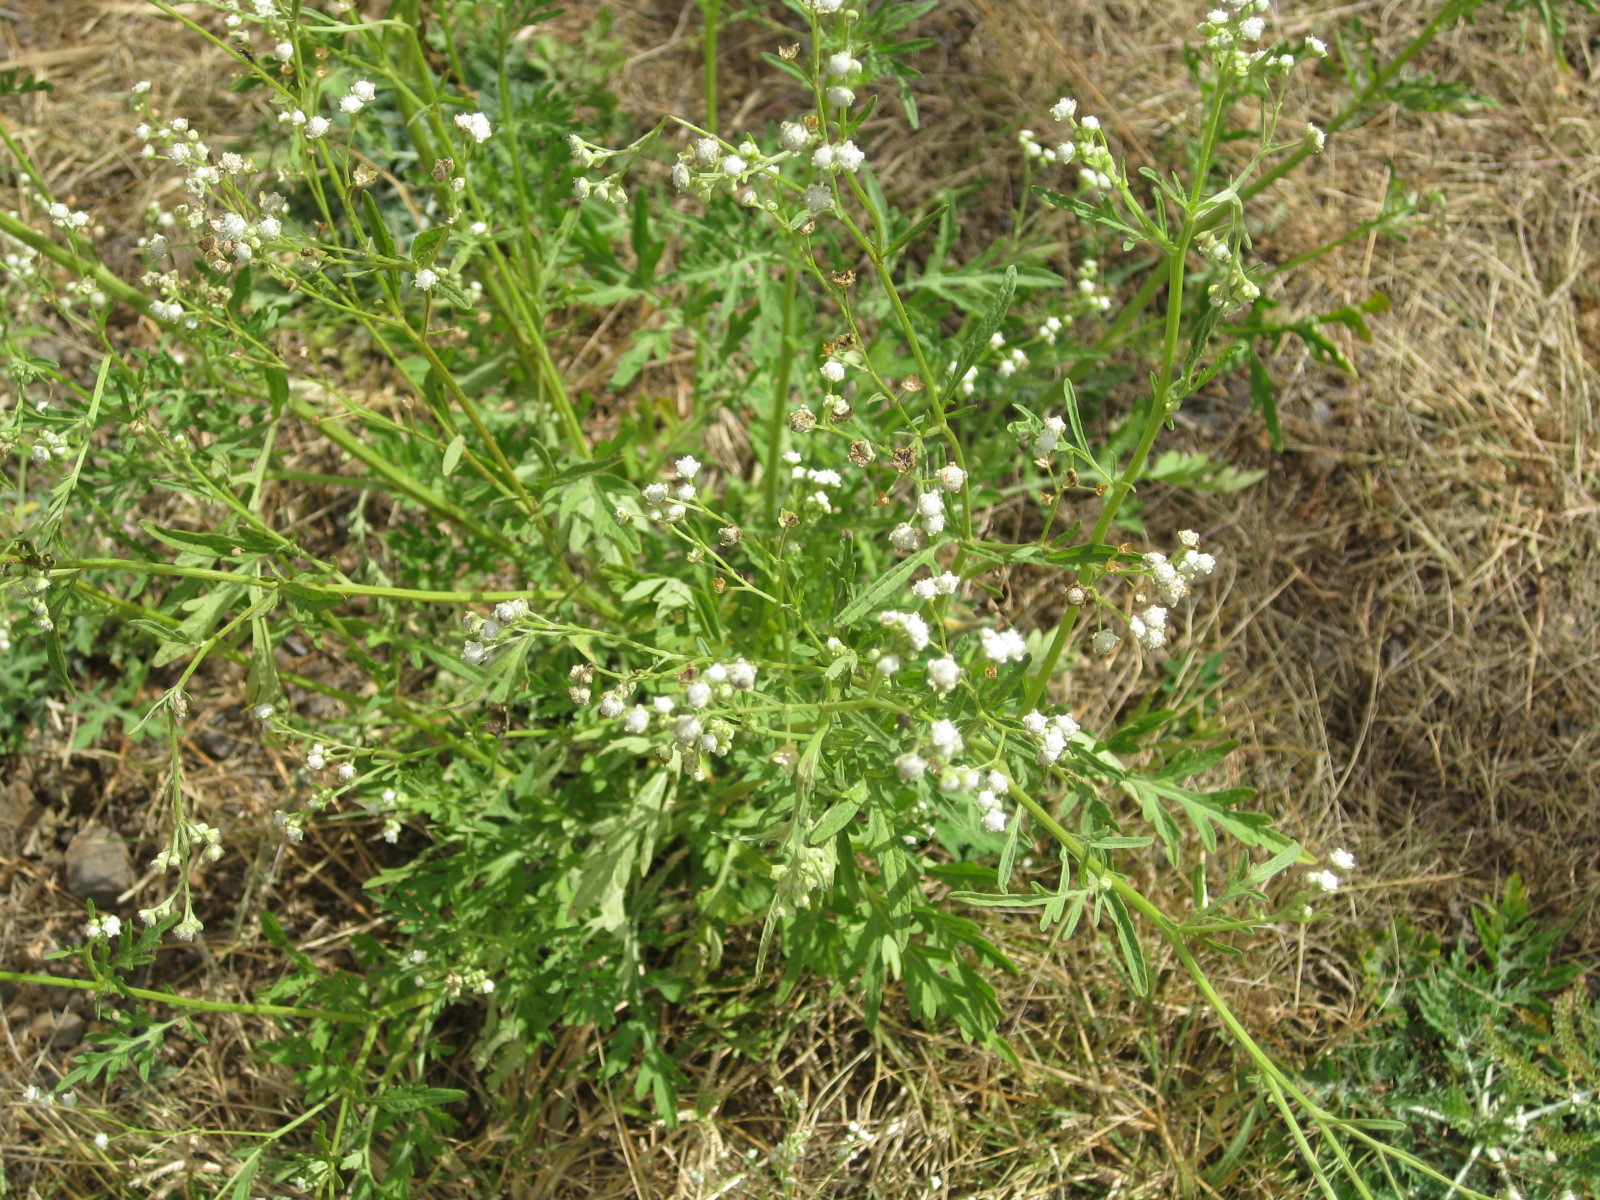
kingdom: Plantae
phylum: Tracheophyta
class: Magnoliopsida
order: Asterales
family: Asteraceae
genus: Parthenium
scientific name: Parthenium hysterophorus
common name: Santa maria feverfew
